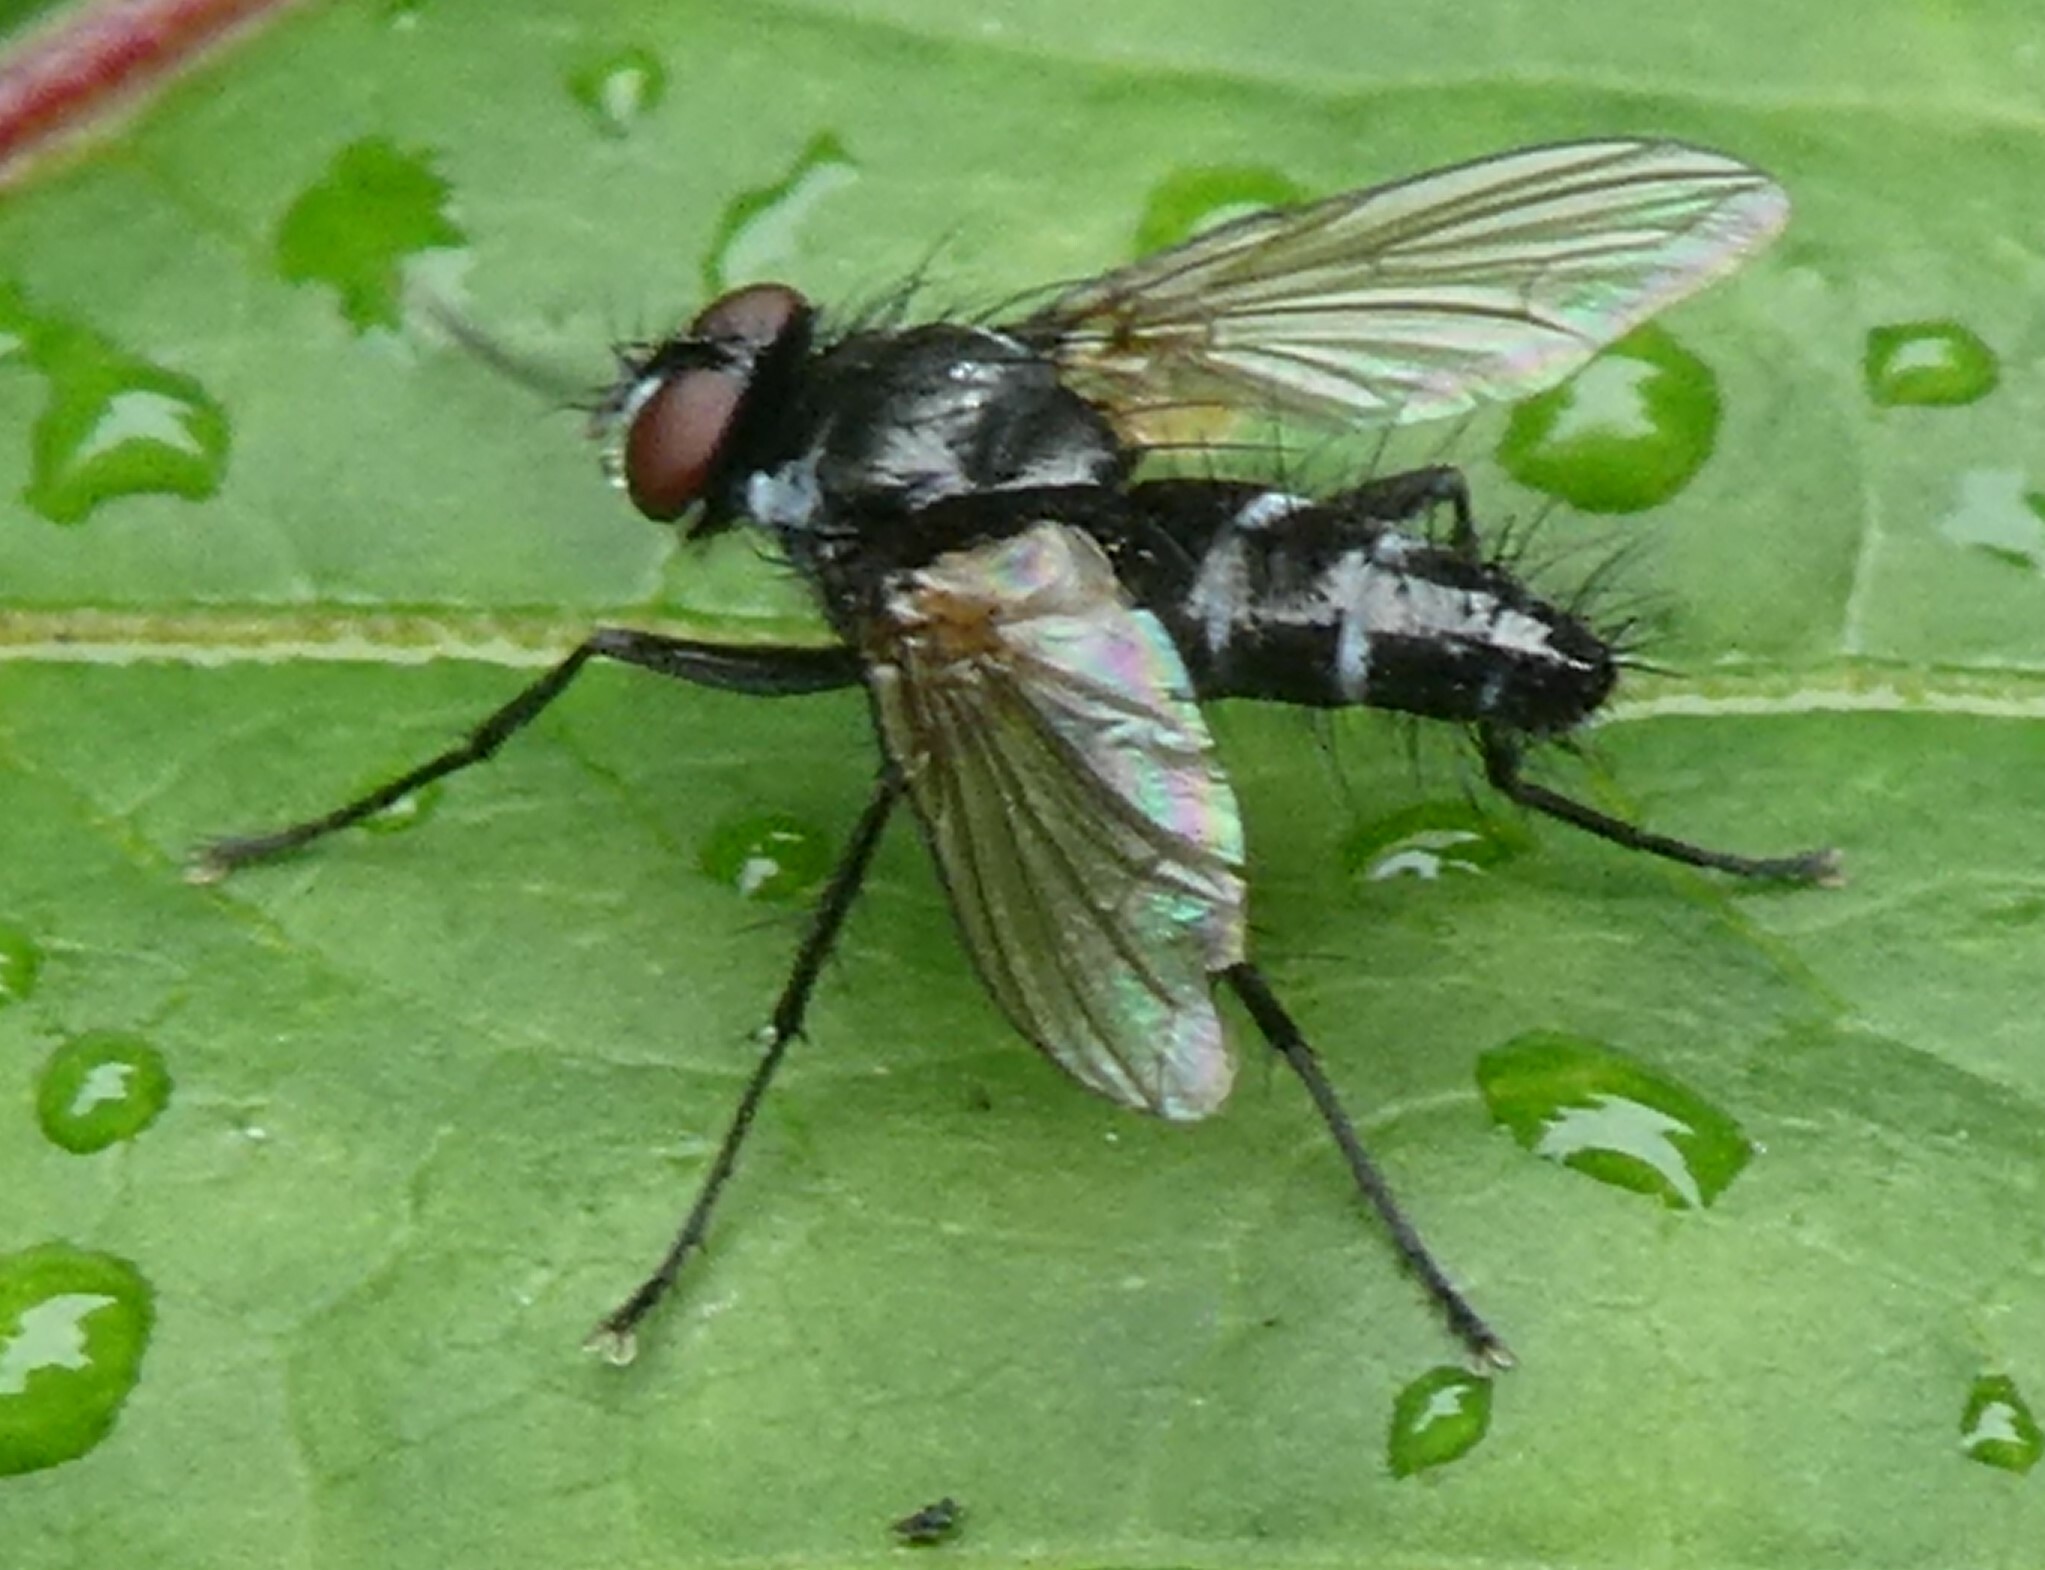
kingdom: Animalia
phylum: Arthropoda
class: Insecta
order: Diptera
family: Tachinidae
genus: Gastrolepta
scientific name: Gastrolepta anthracina
